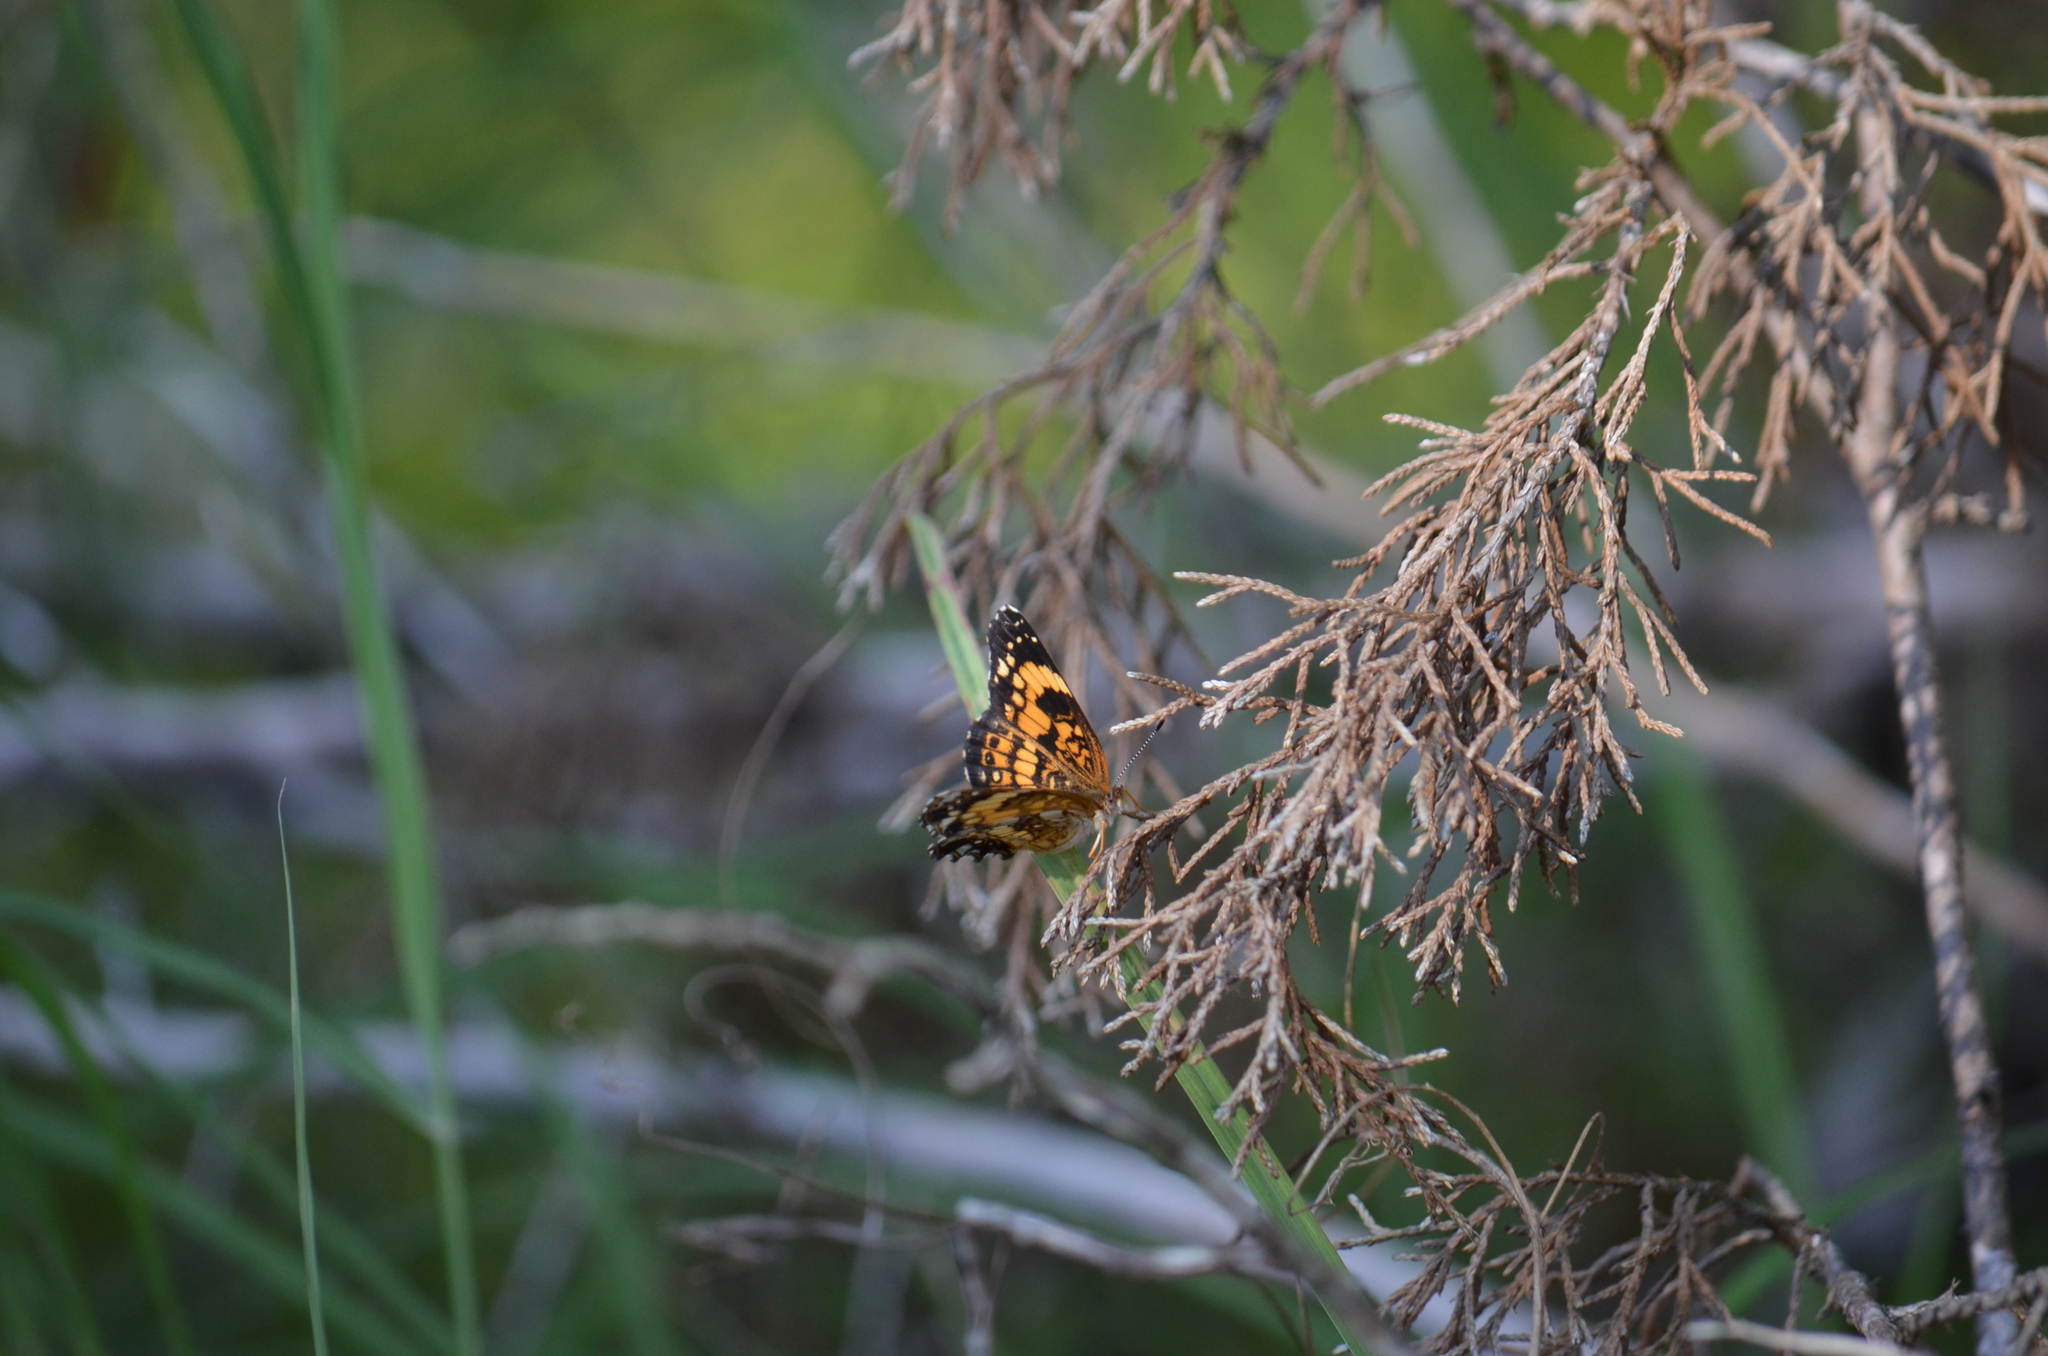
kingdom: Animalia
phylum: Arthropoda
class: Insecta
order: Lepidoptera
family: Nymphalidae
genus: Chlosyne
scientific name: Chlosyne nycteis
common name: Silvery checkerspot
